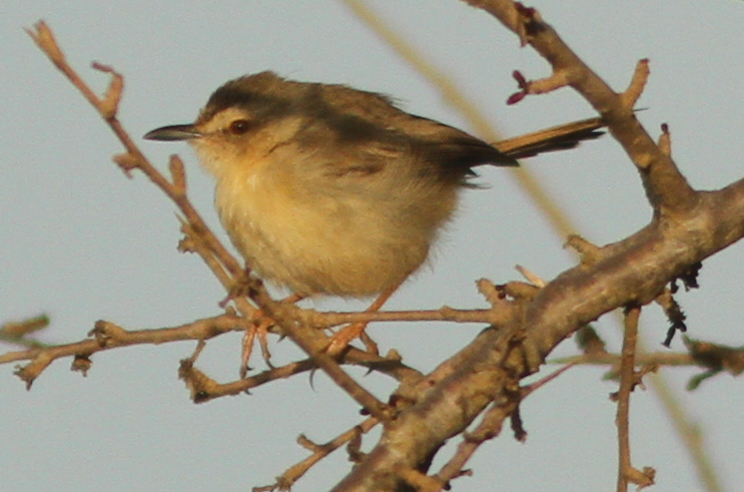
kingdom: Animalia
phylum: Chordata
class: Aves
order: Passeriformes
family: Cisticolidae
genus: Prinia
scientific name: Prinia subflava
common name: Tawny-flanked prinia
